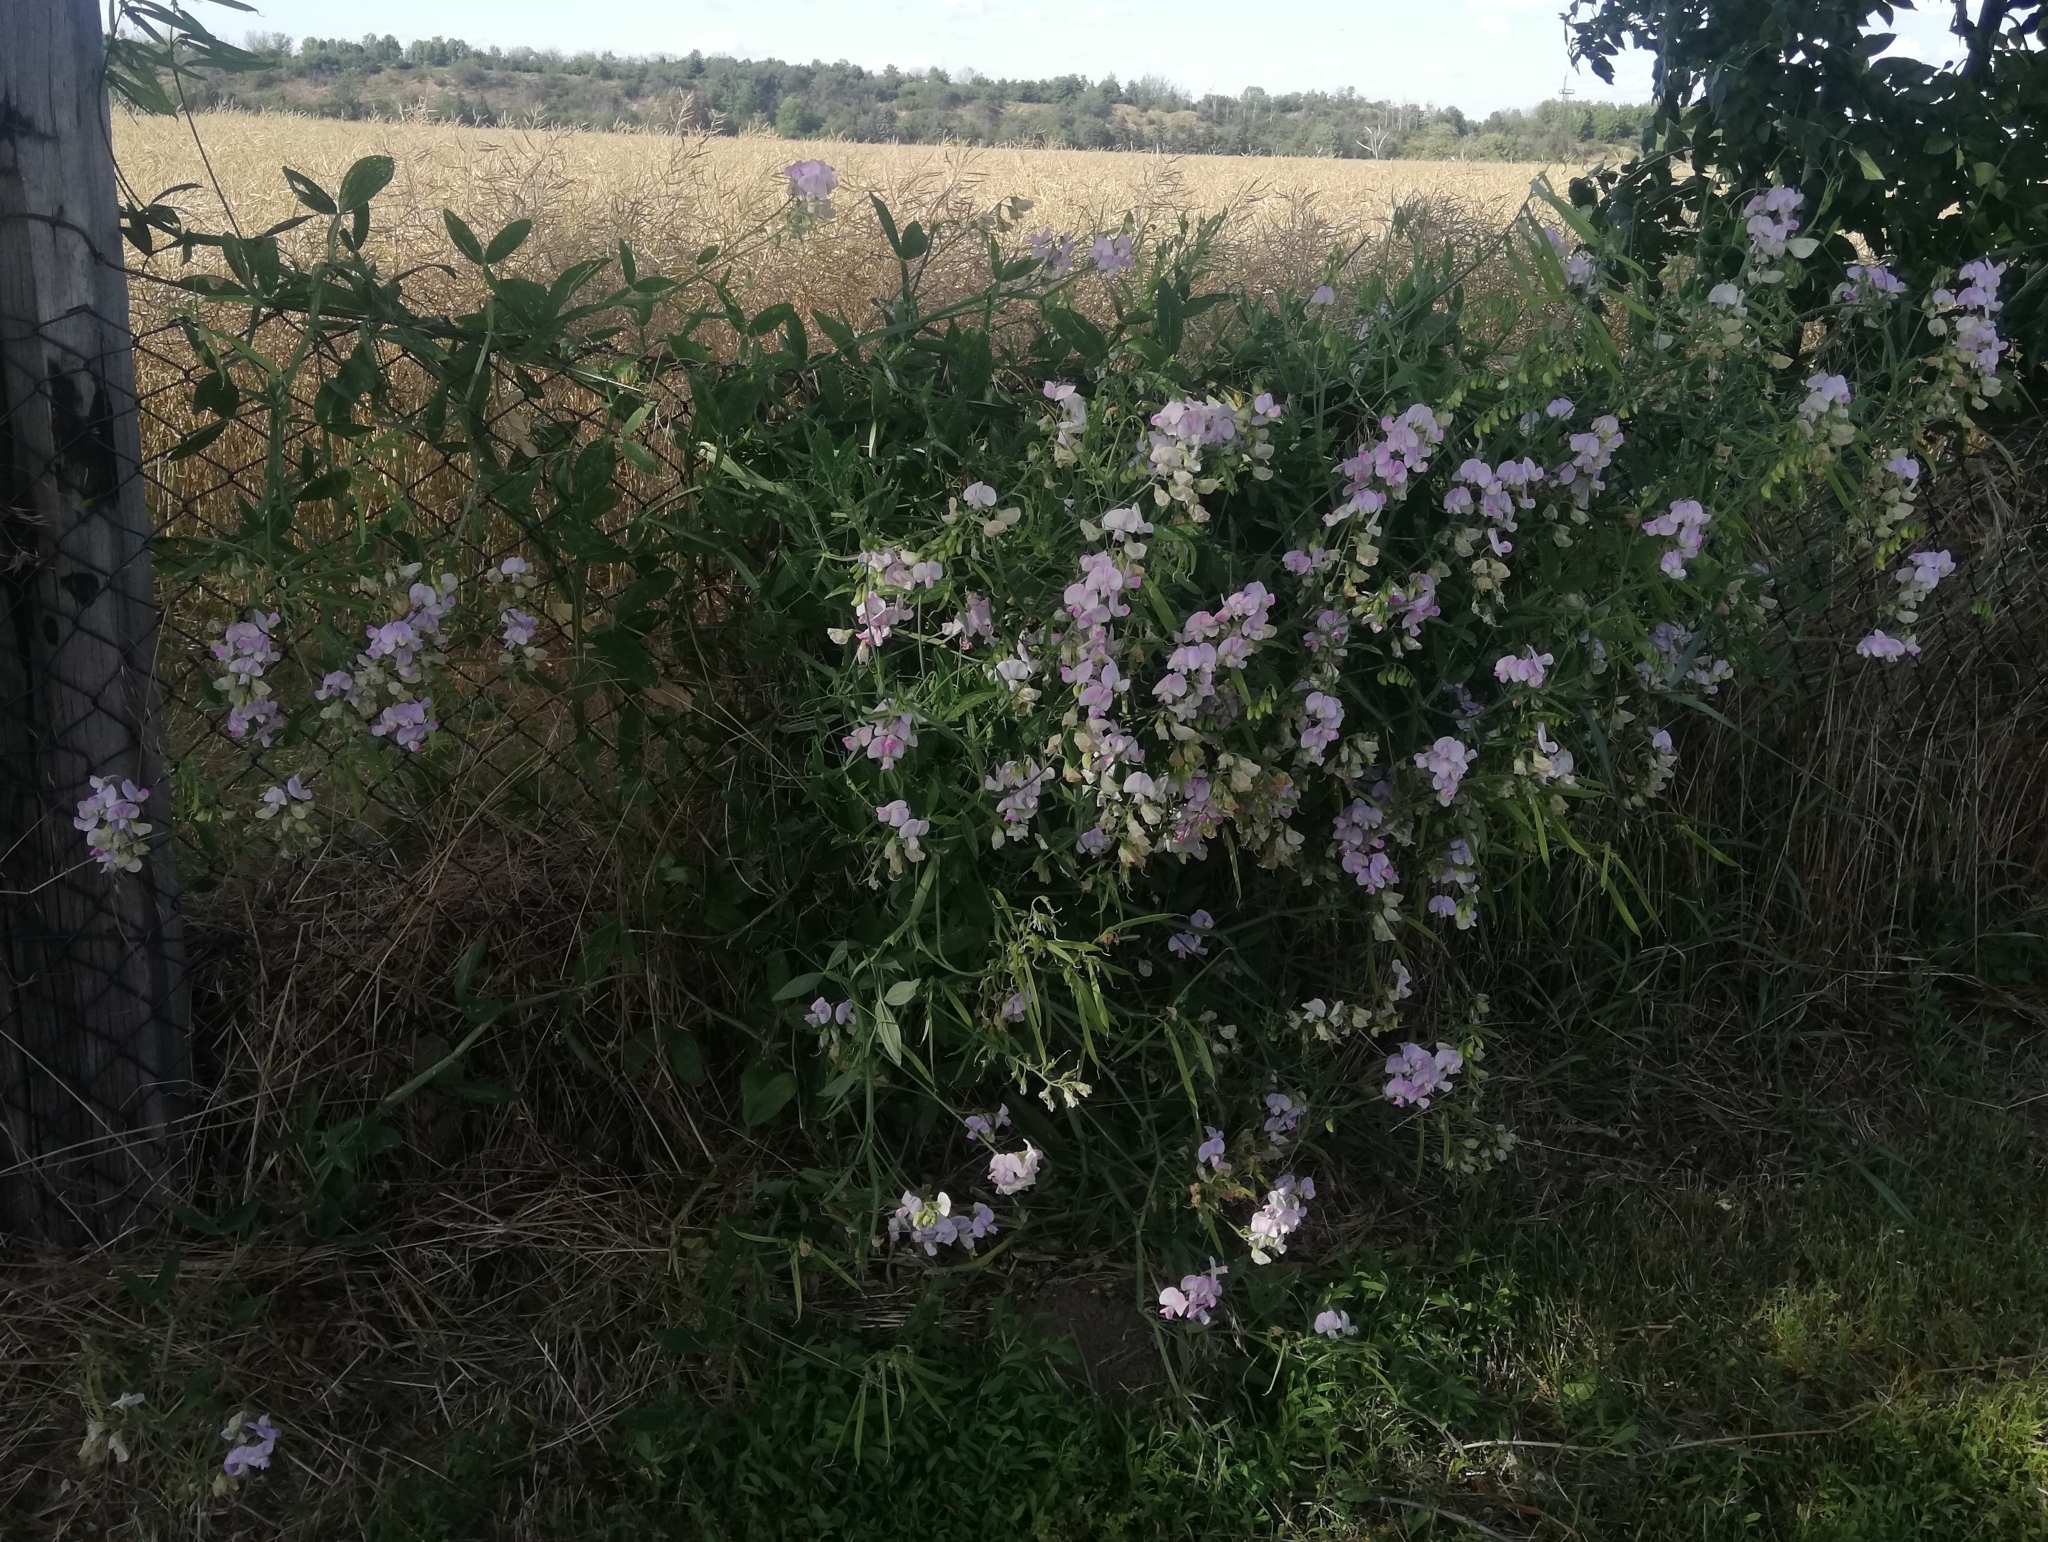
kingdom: Plantae
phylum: Tracheophyta
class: Magnoliopsida
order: Fabales
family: Fabaceae
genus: Lathyrus
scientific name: Lathyrus latifolius
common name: Perennial pea
